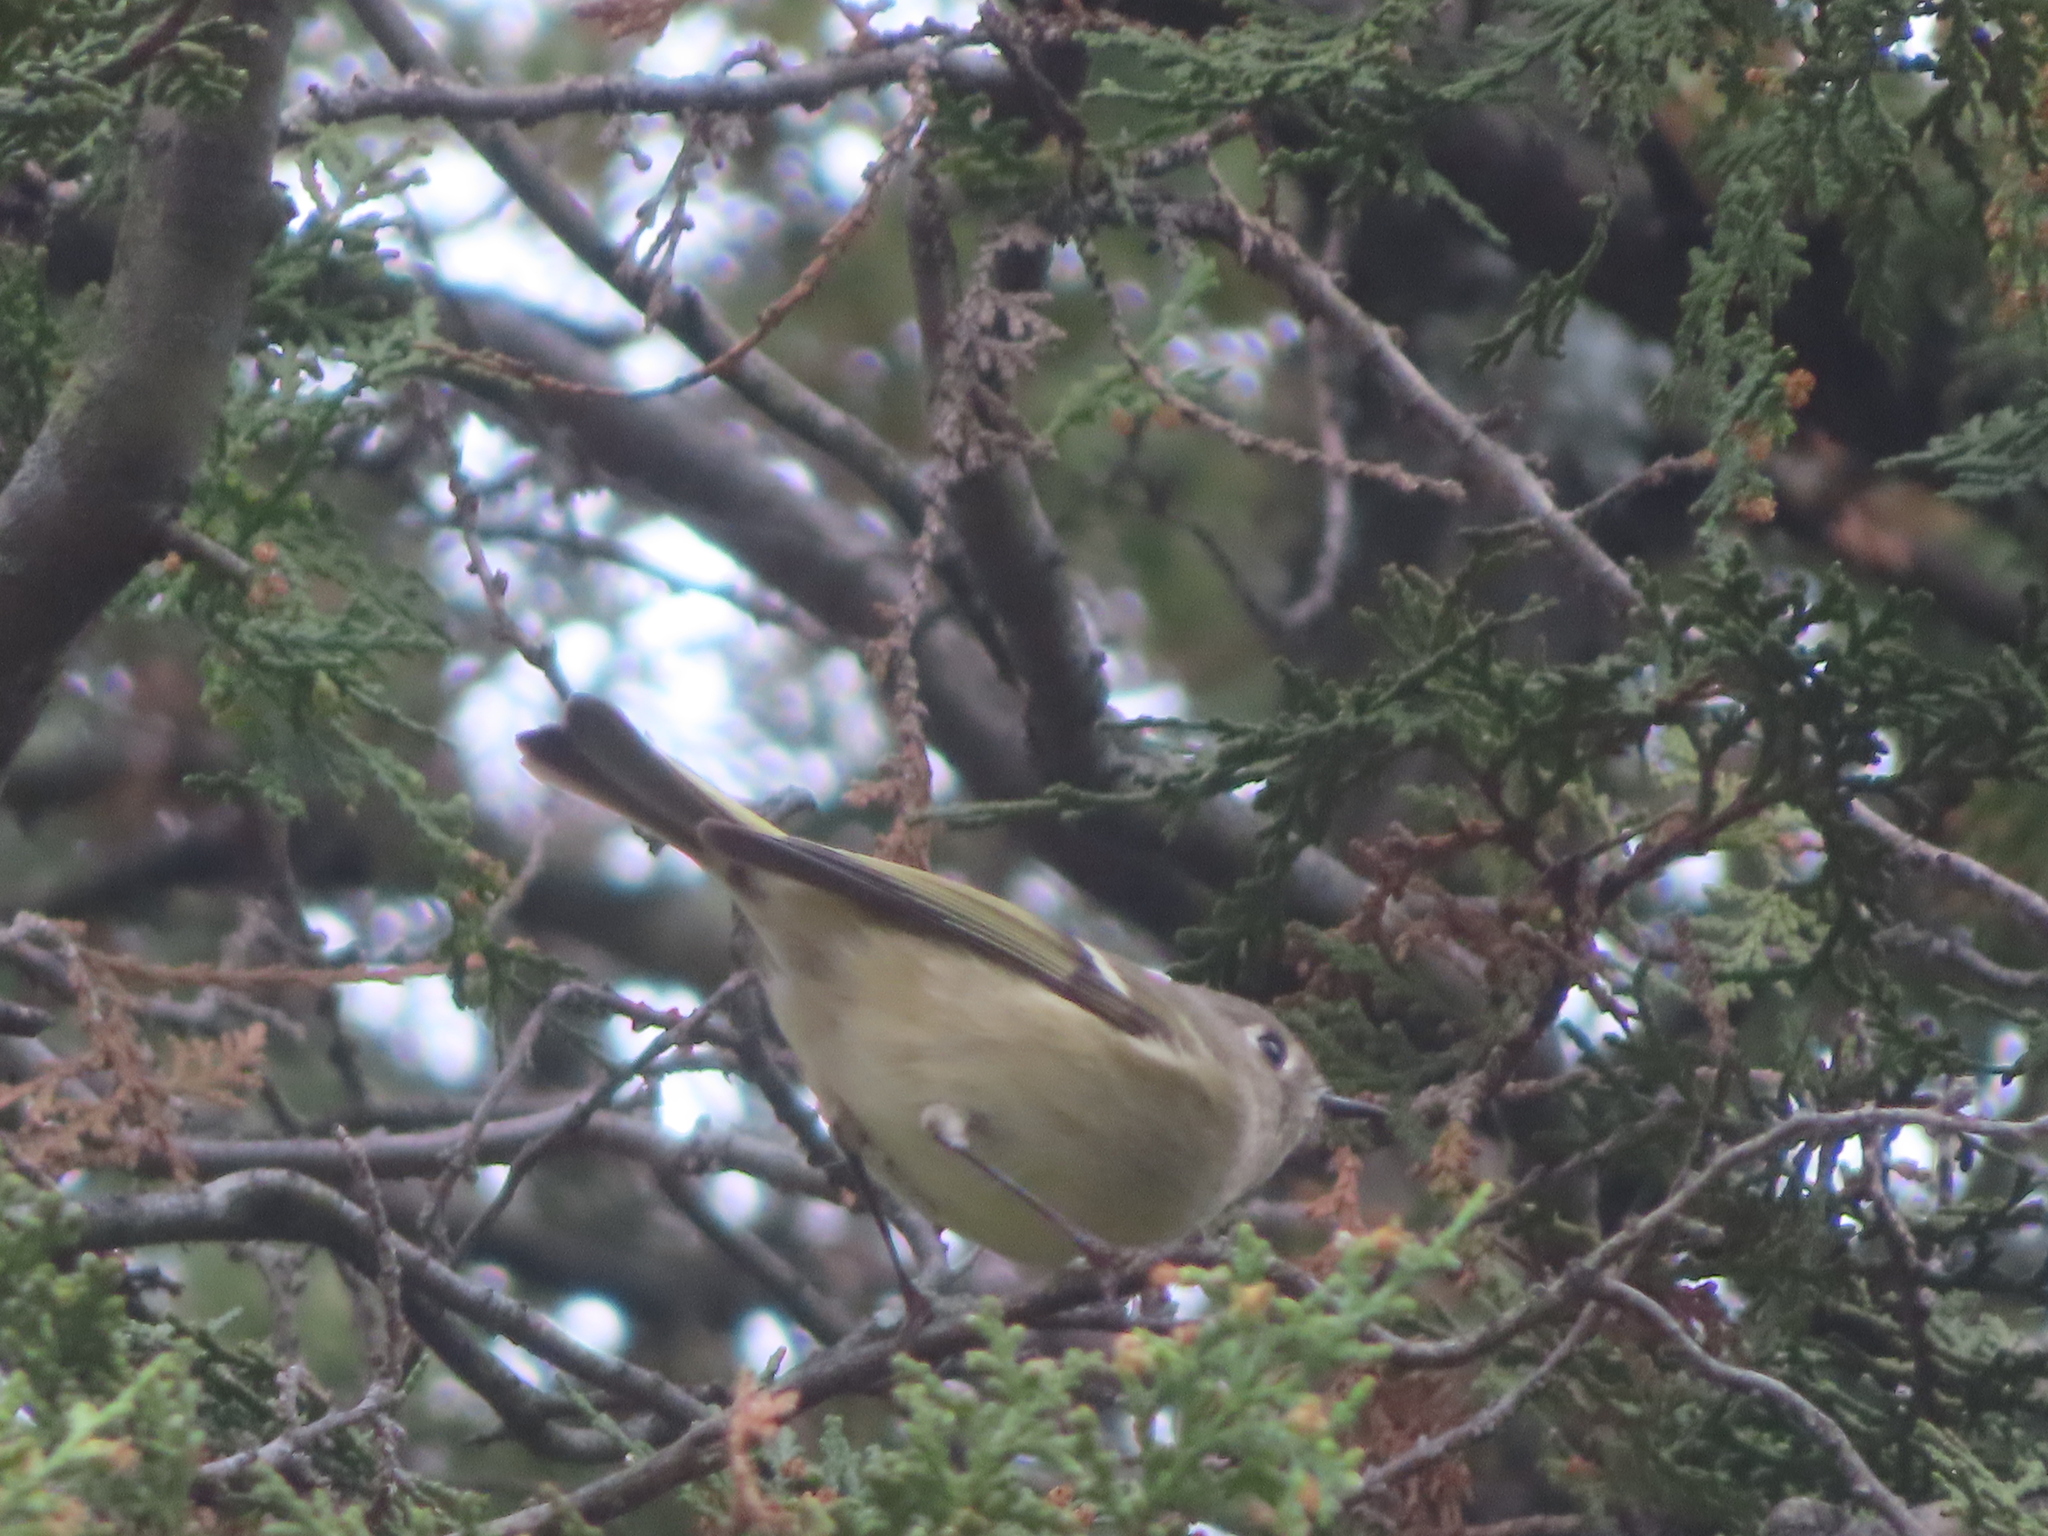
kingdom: Animalia
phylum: Chordata
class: Aves
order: Passeriformes
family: Regulidae
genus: Regulus
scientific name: Regulus calendula
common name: Ruby-crowned kinglet
